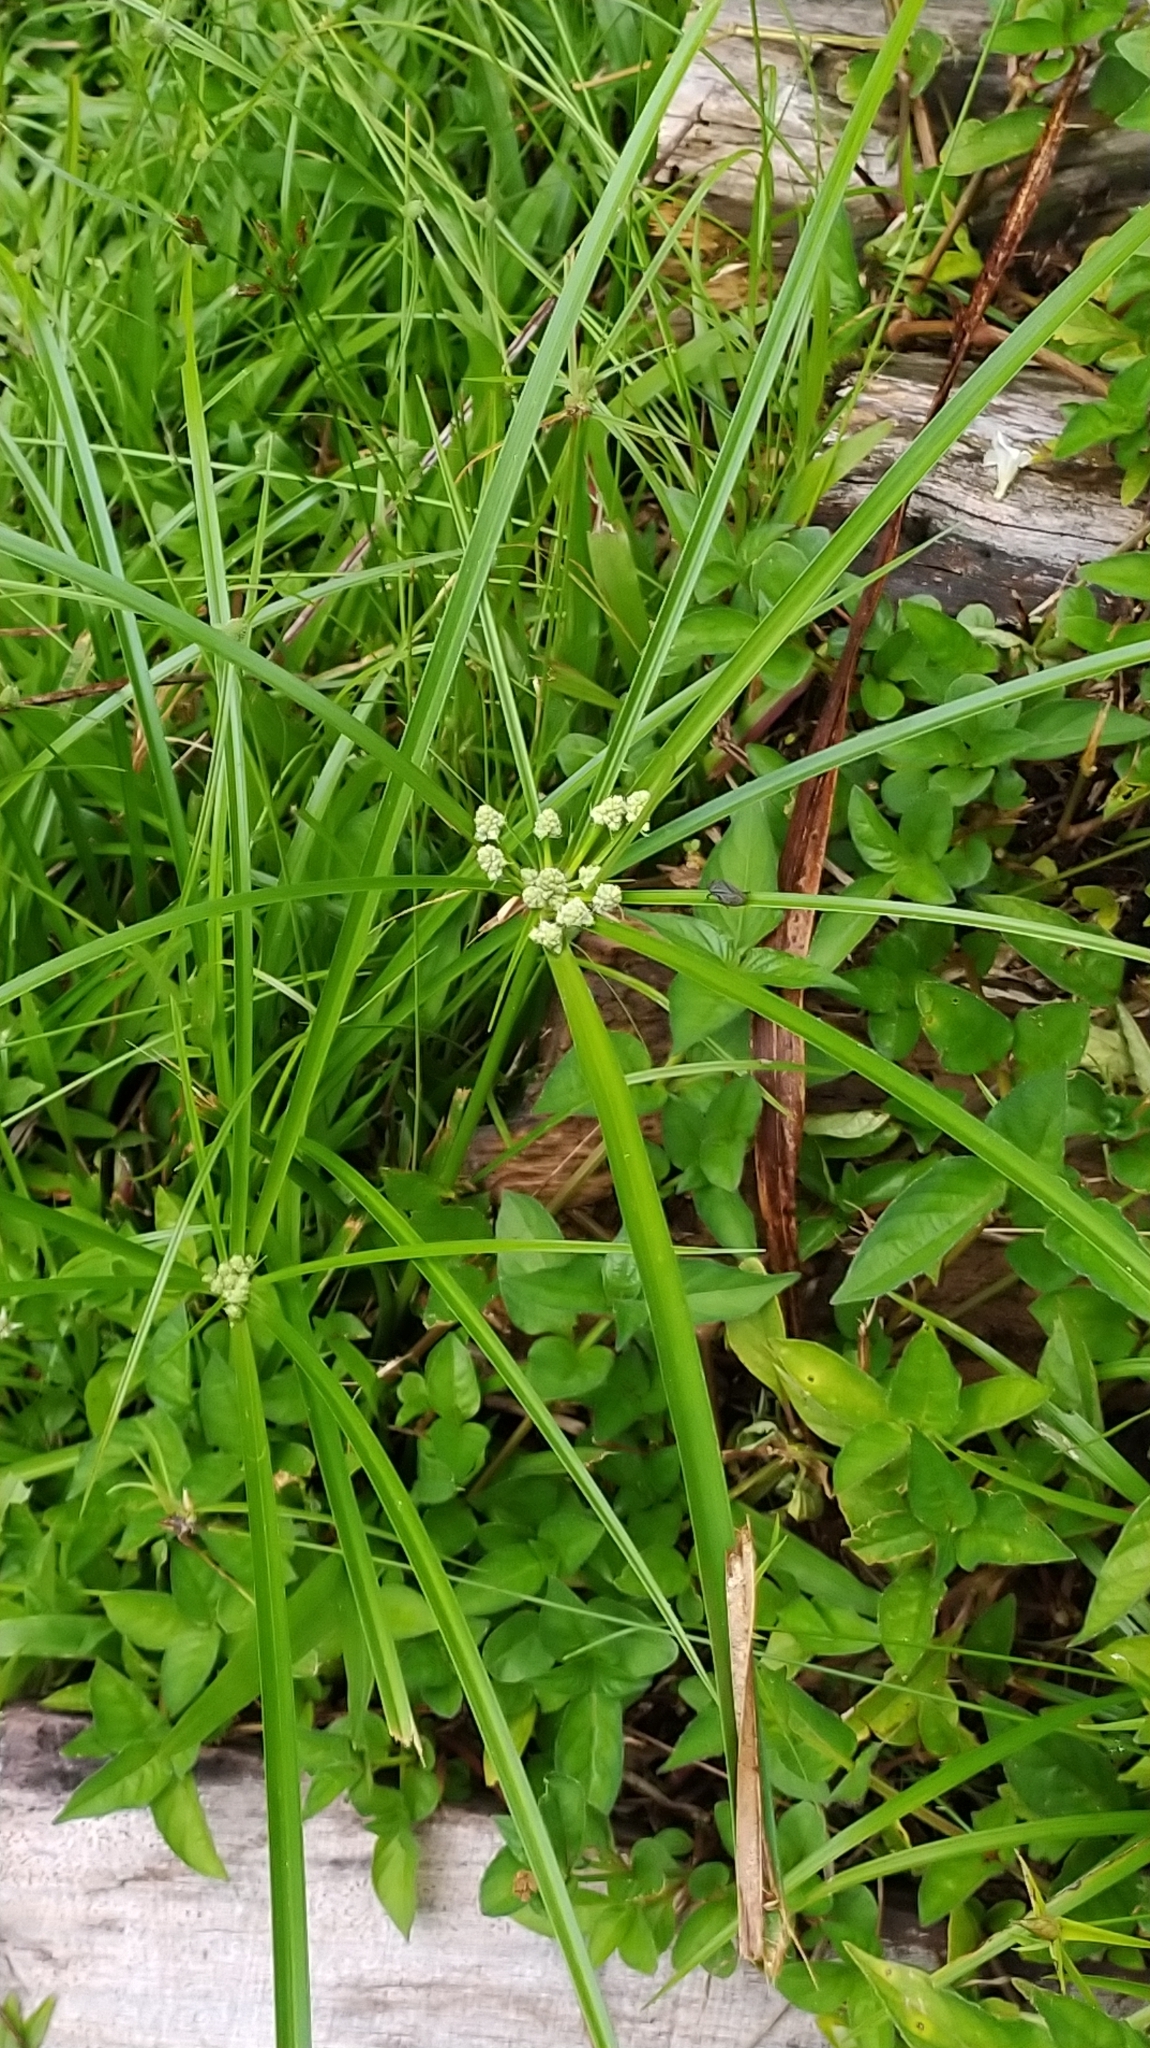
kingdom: Plantae
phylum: Tracheophyta
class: Liliopsida
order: Poales
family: Cyperaceae
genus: Cyperus
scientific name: Cyperus luzulae
